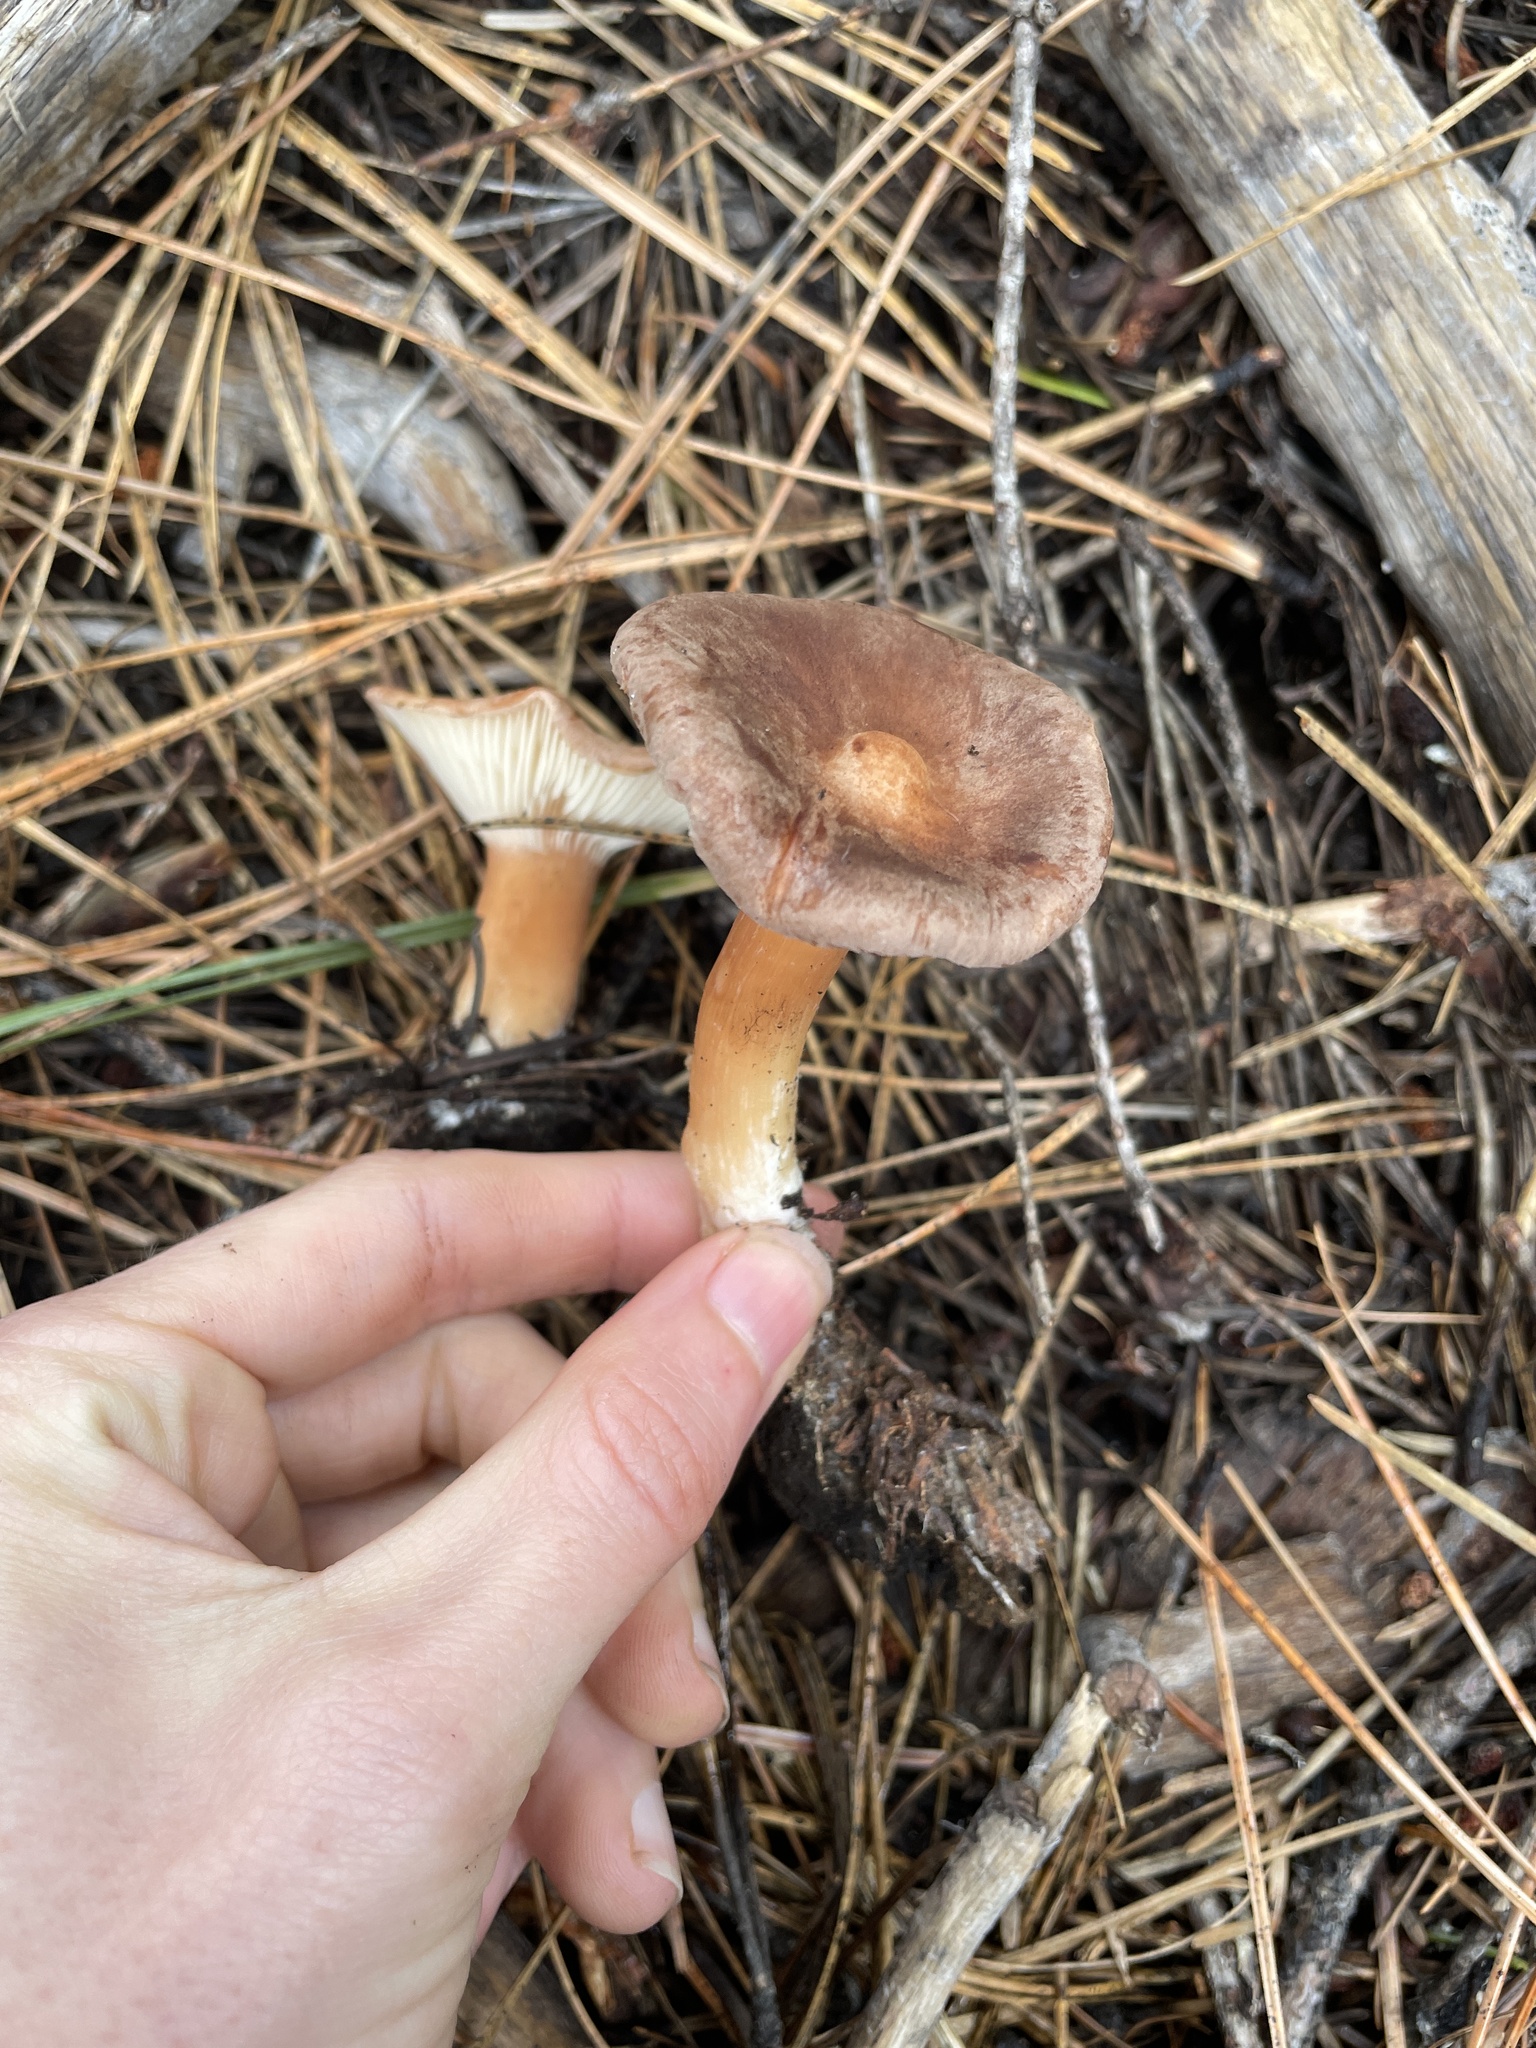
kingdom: Fungi
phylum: Basidiomycota
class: Agaricomycetes
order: Agaricales
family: Tricholomataceae
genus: Infundibulicybe
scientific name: Infundibulicybe squamulosa
